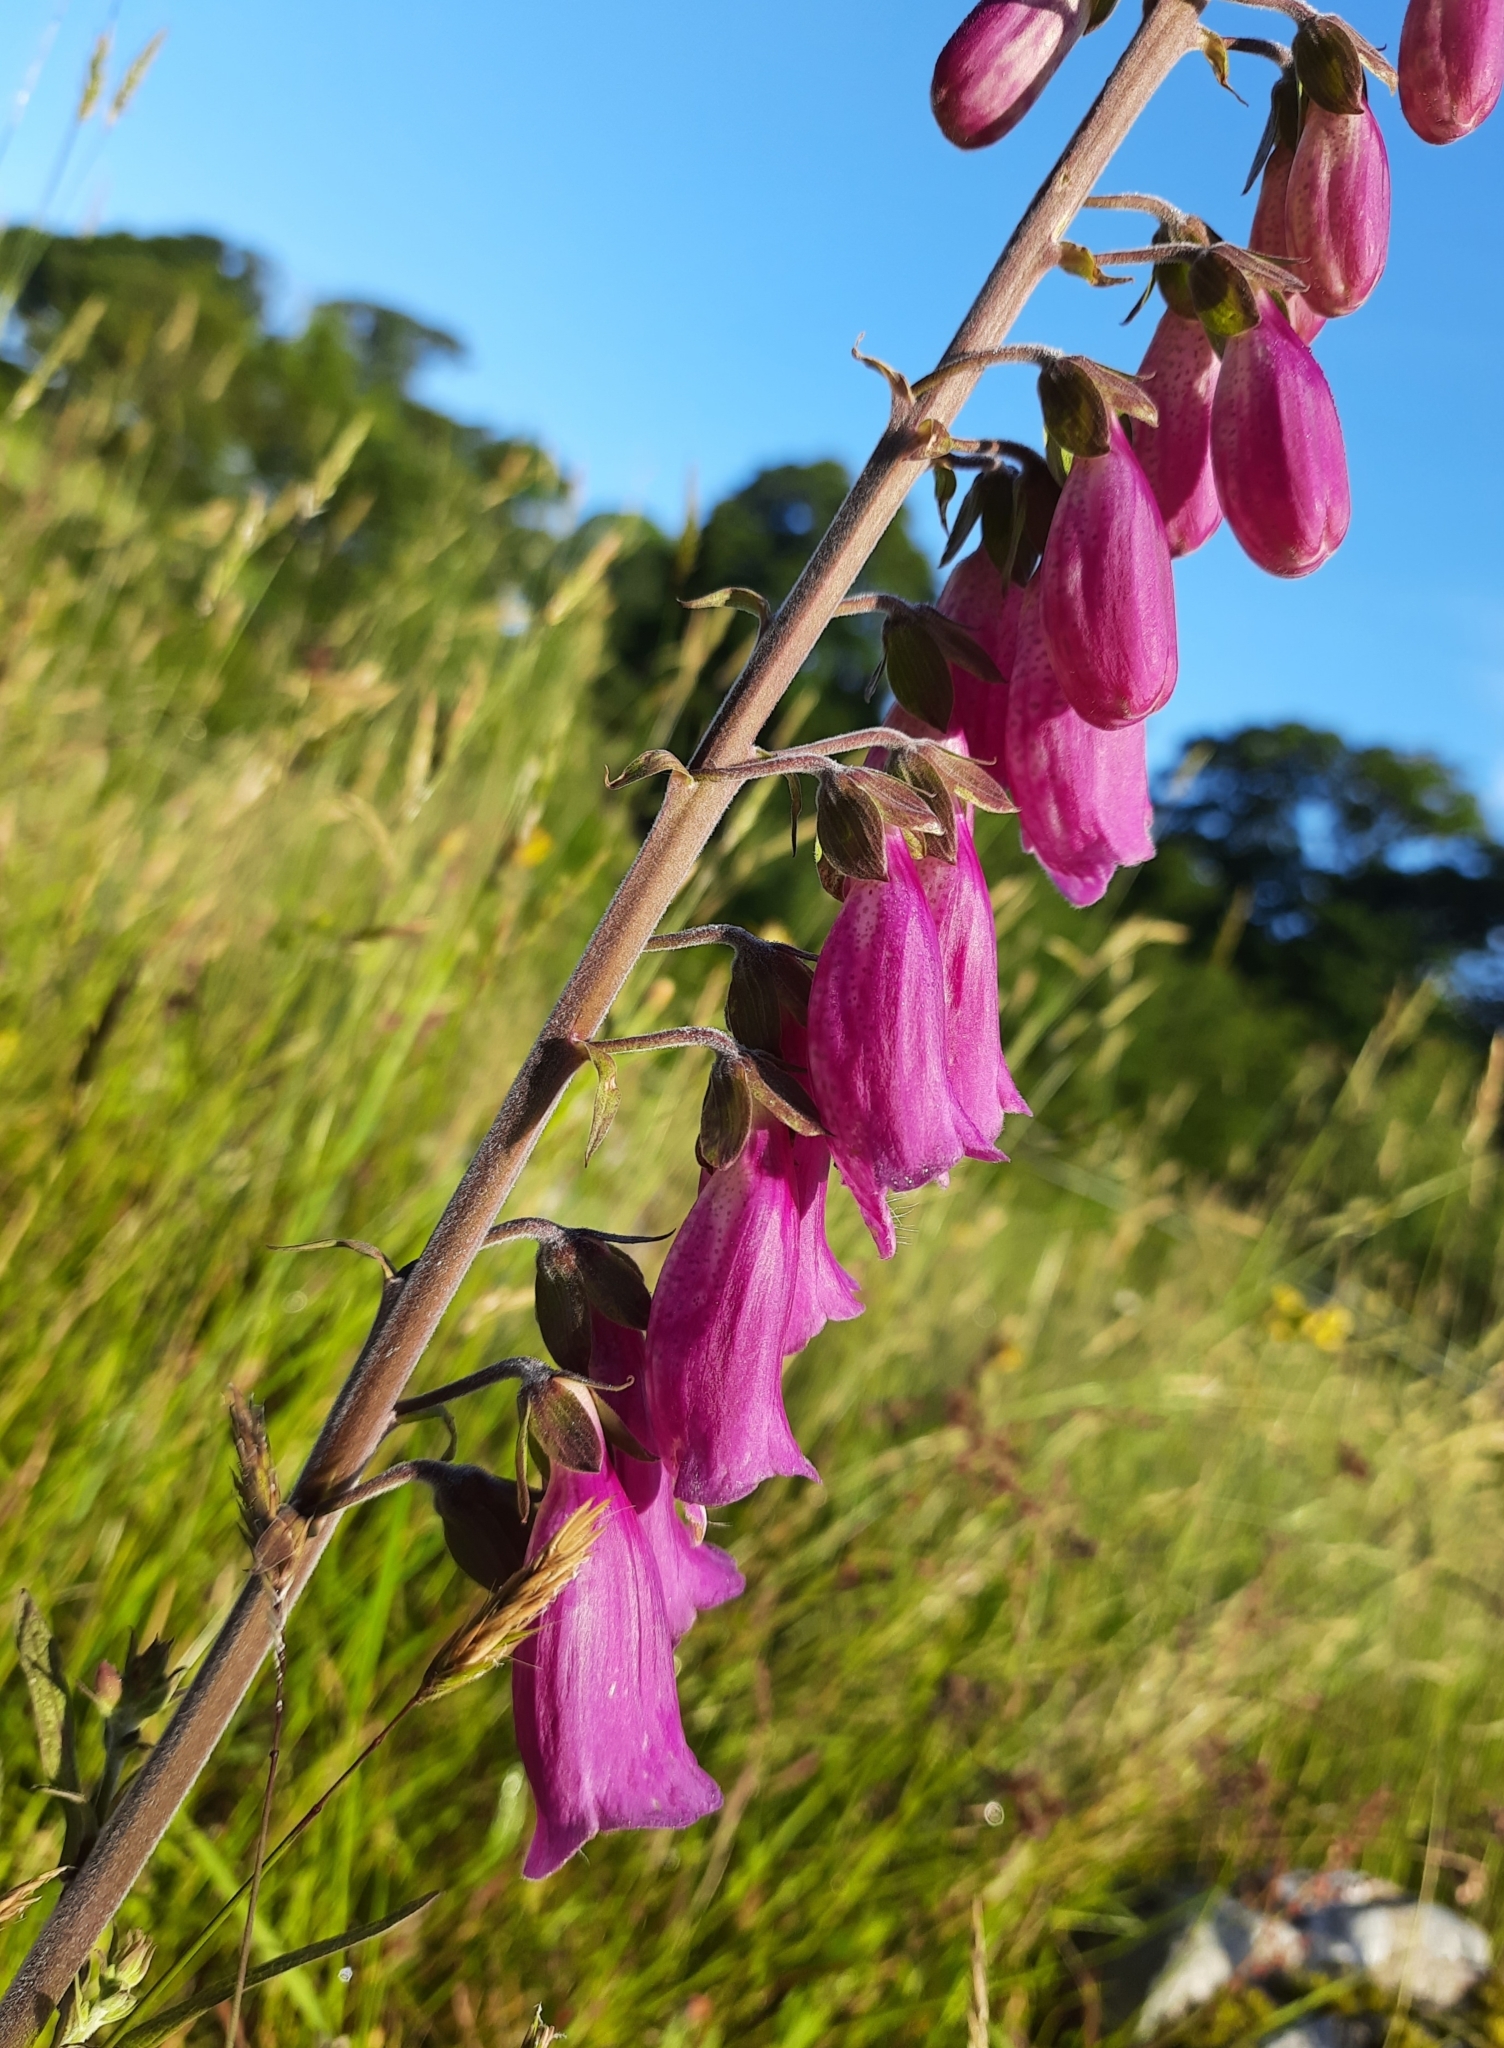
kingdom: Plantae
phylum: Tracheophyta
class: Magnoliopsida
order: Lamiales
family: Plantaginaceae
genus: Digitalis
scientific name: Digitalis purpurea
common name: Foxglove
